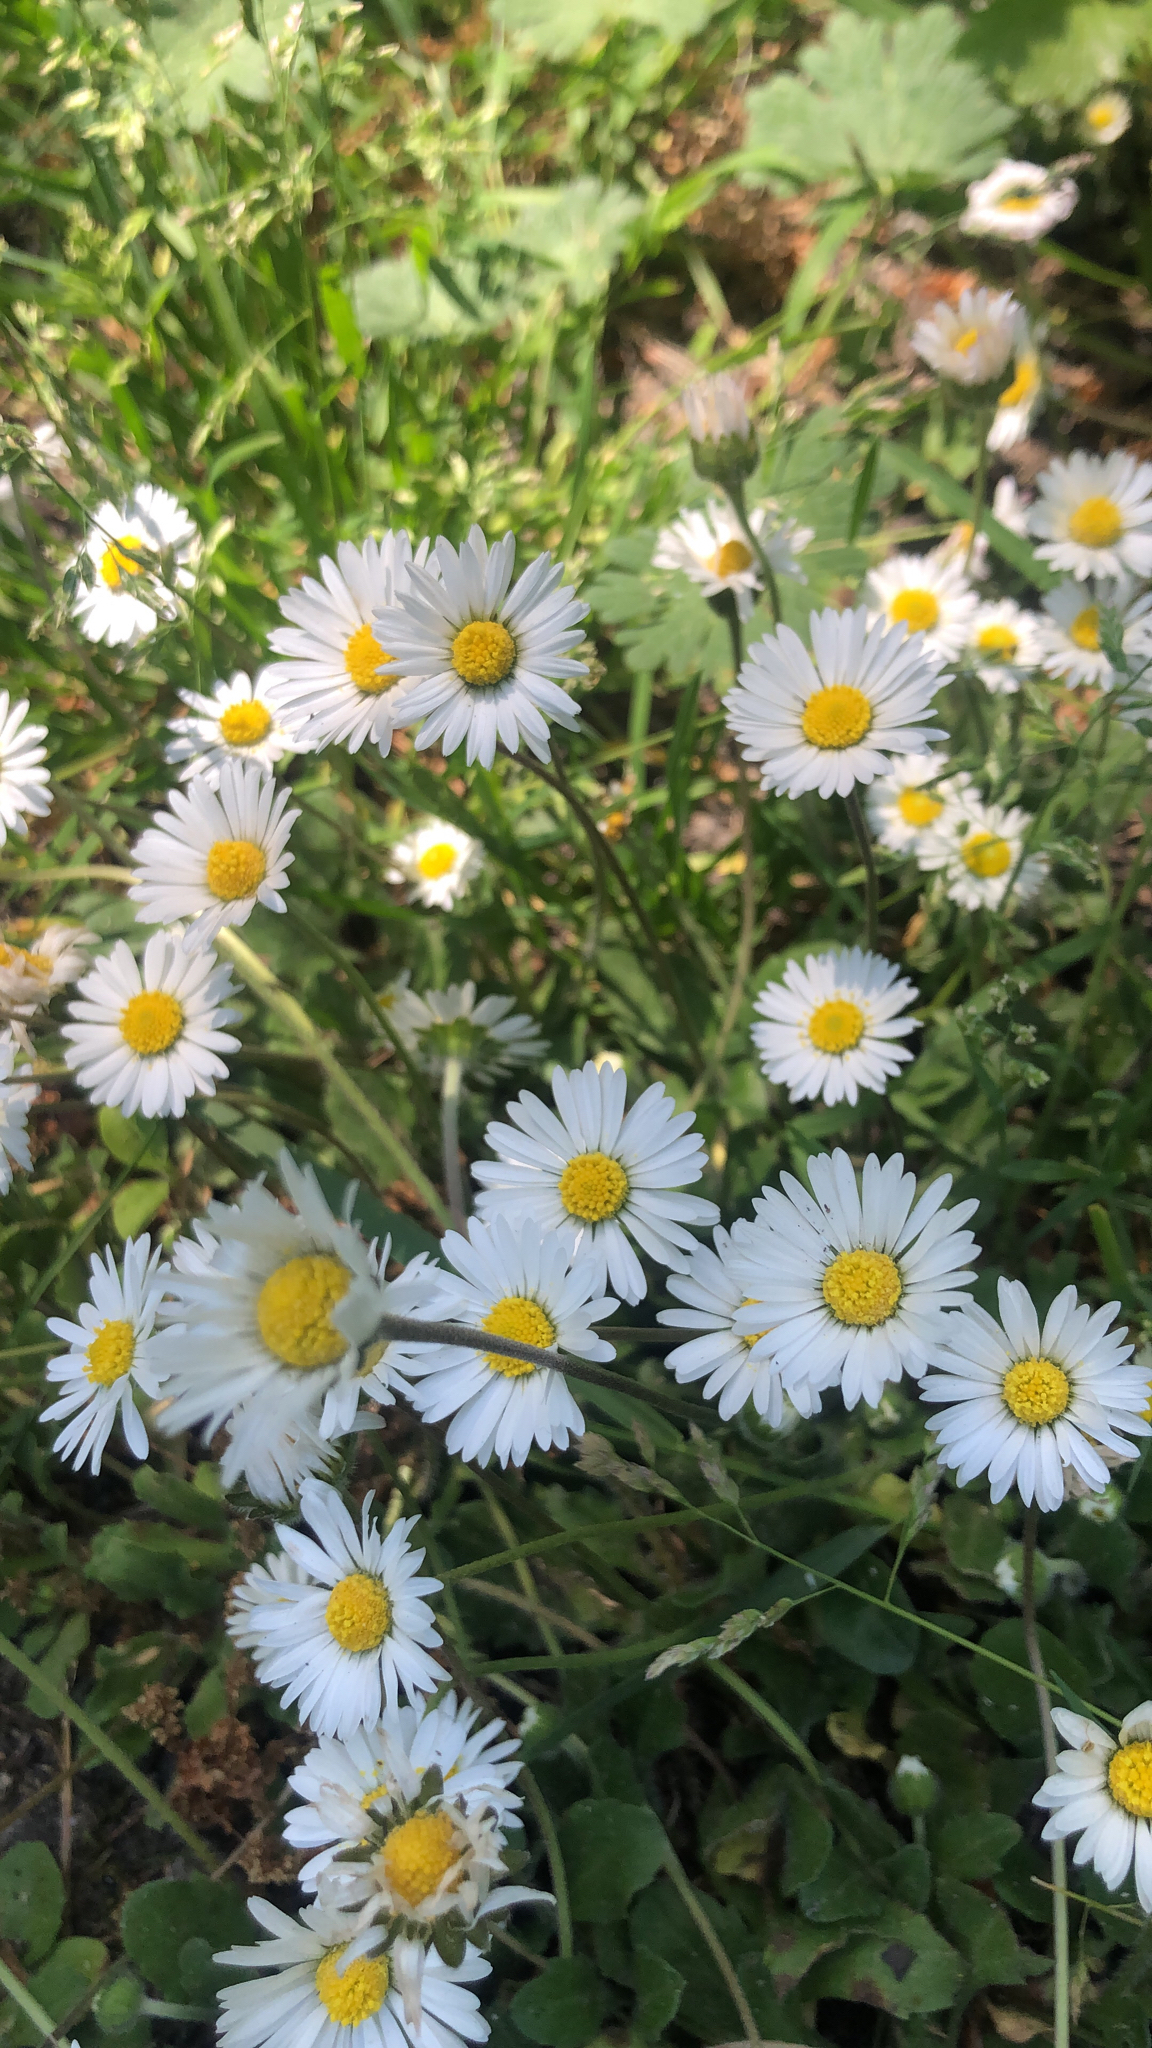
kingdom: Plantae
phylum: Tracheophyta
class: Magnoliopsida
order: Asterales
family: Asteraceae
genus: Bellis
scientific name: Bellis perennis
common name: Lawndaisy
